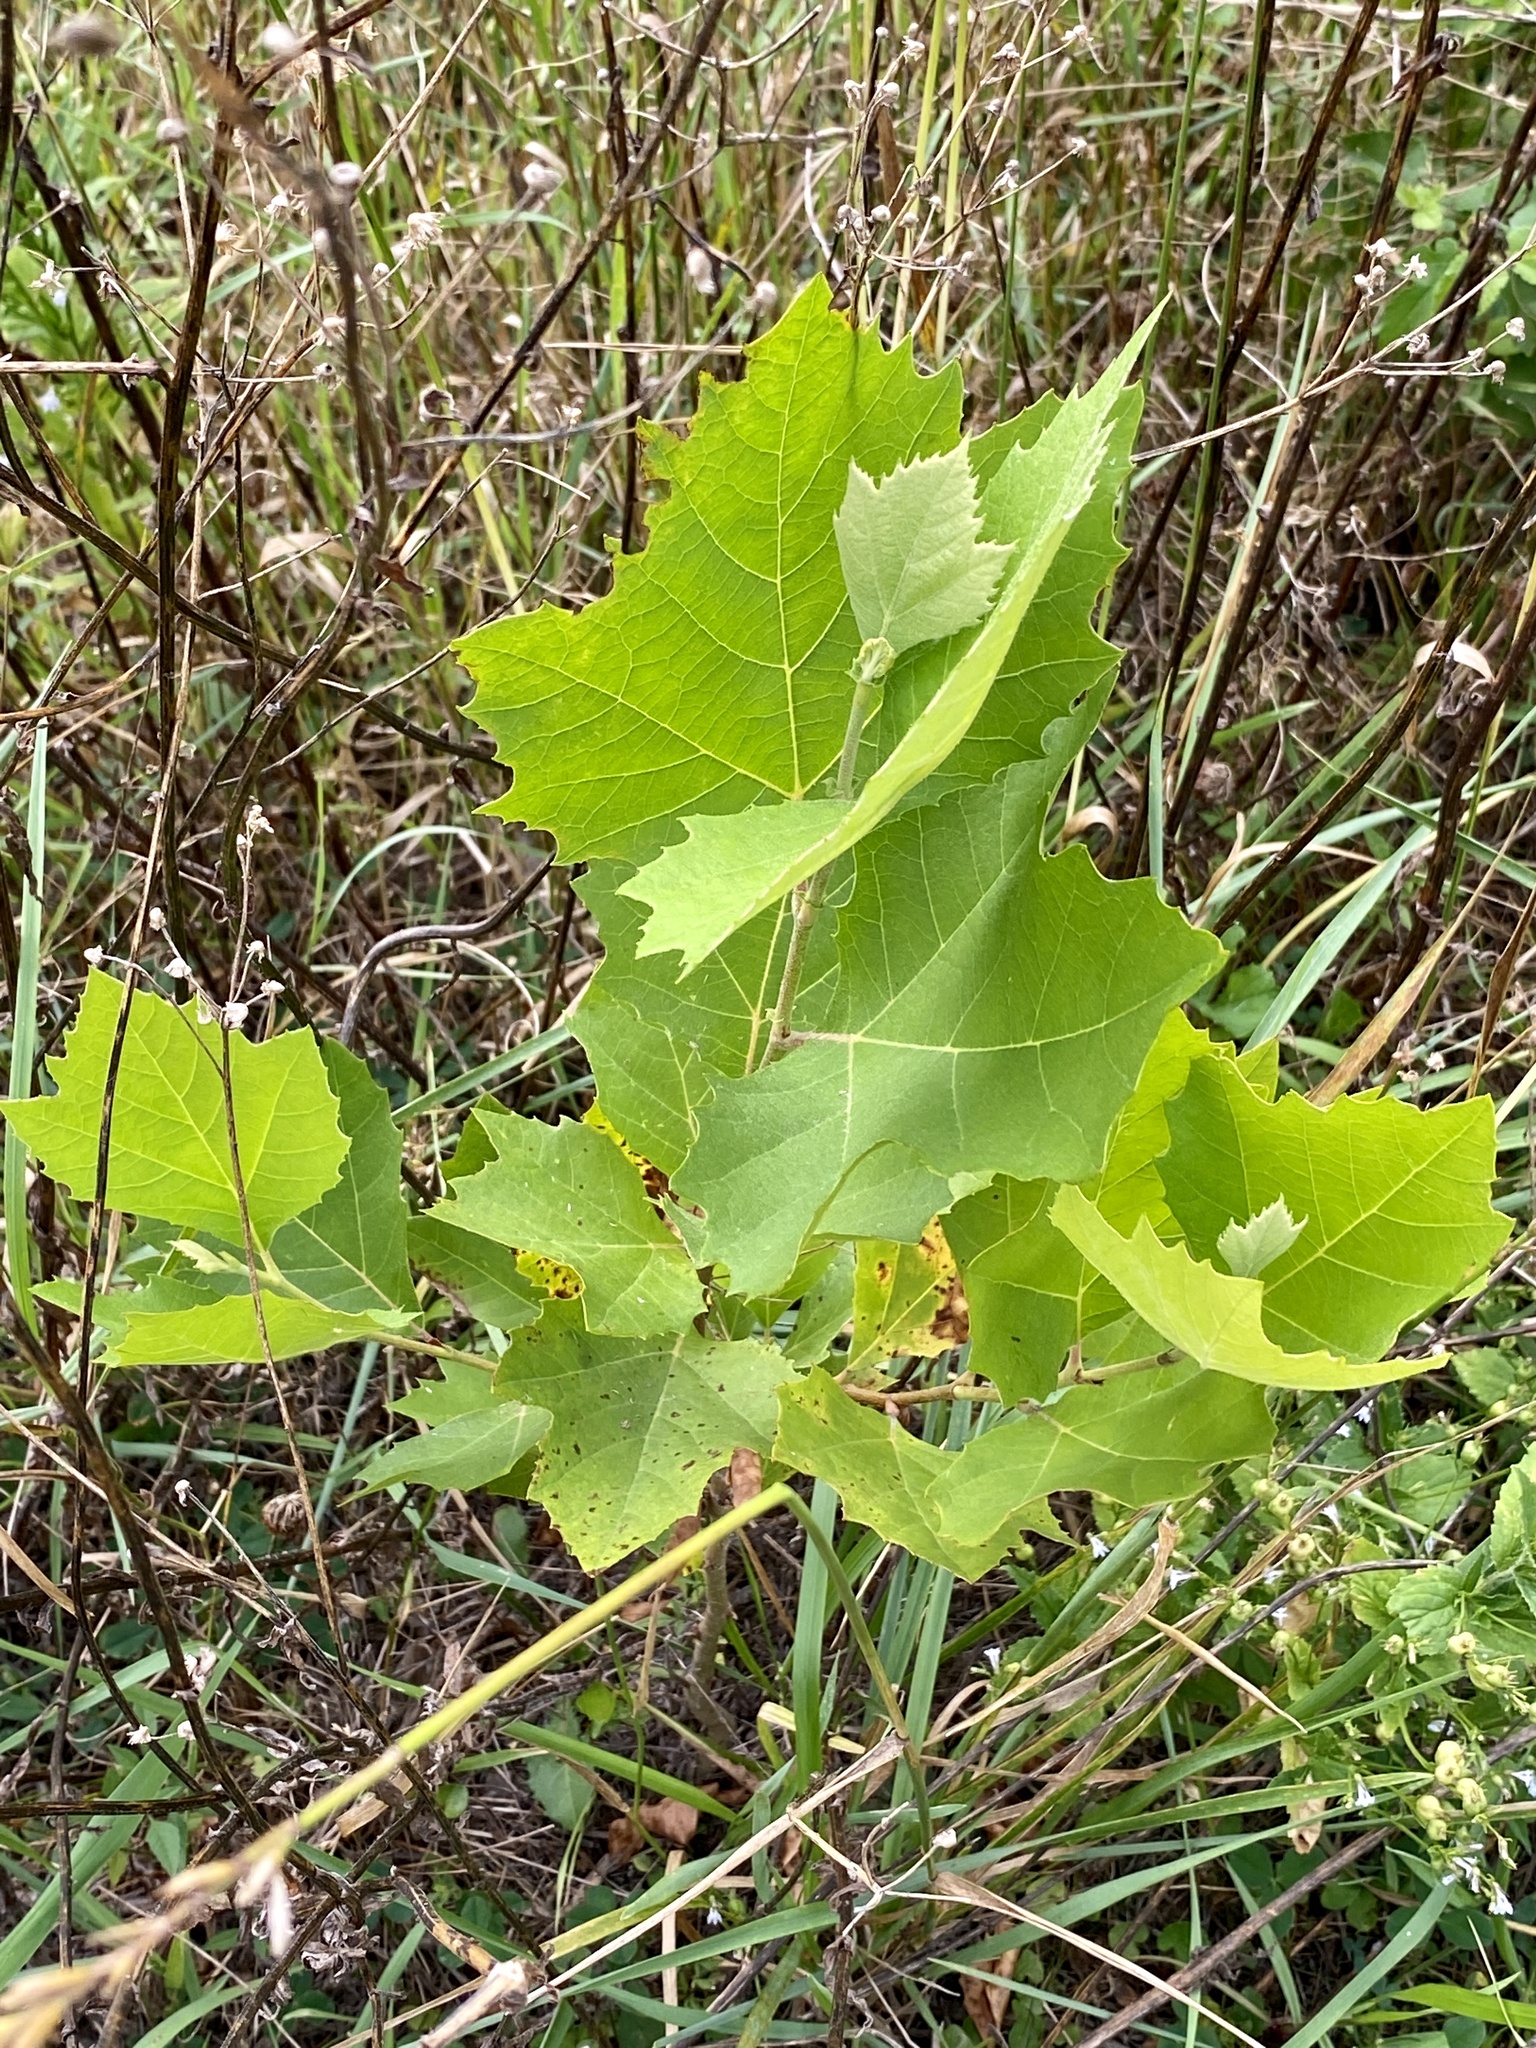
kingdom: Plantae
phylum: Tracheophyta
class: Magnoliopsida
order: Proteales
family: Platanaceae
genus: Platanus
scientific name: Platanus occidentalis
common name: American sycamore
